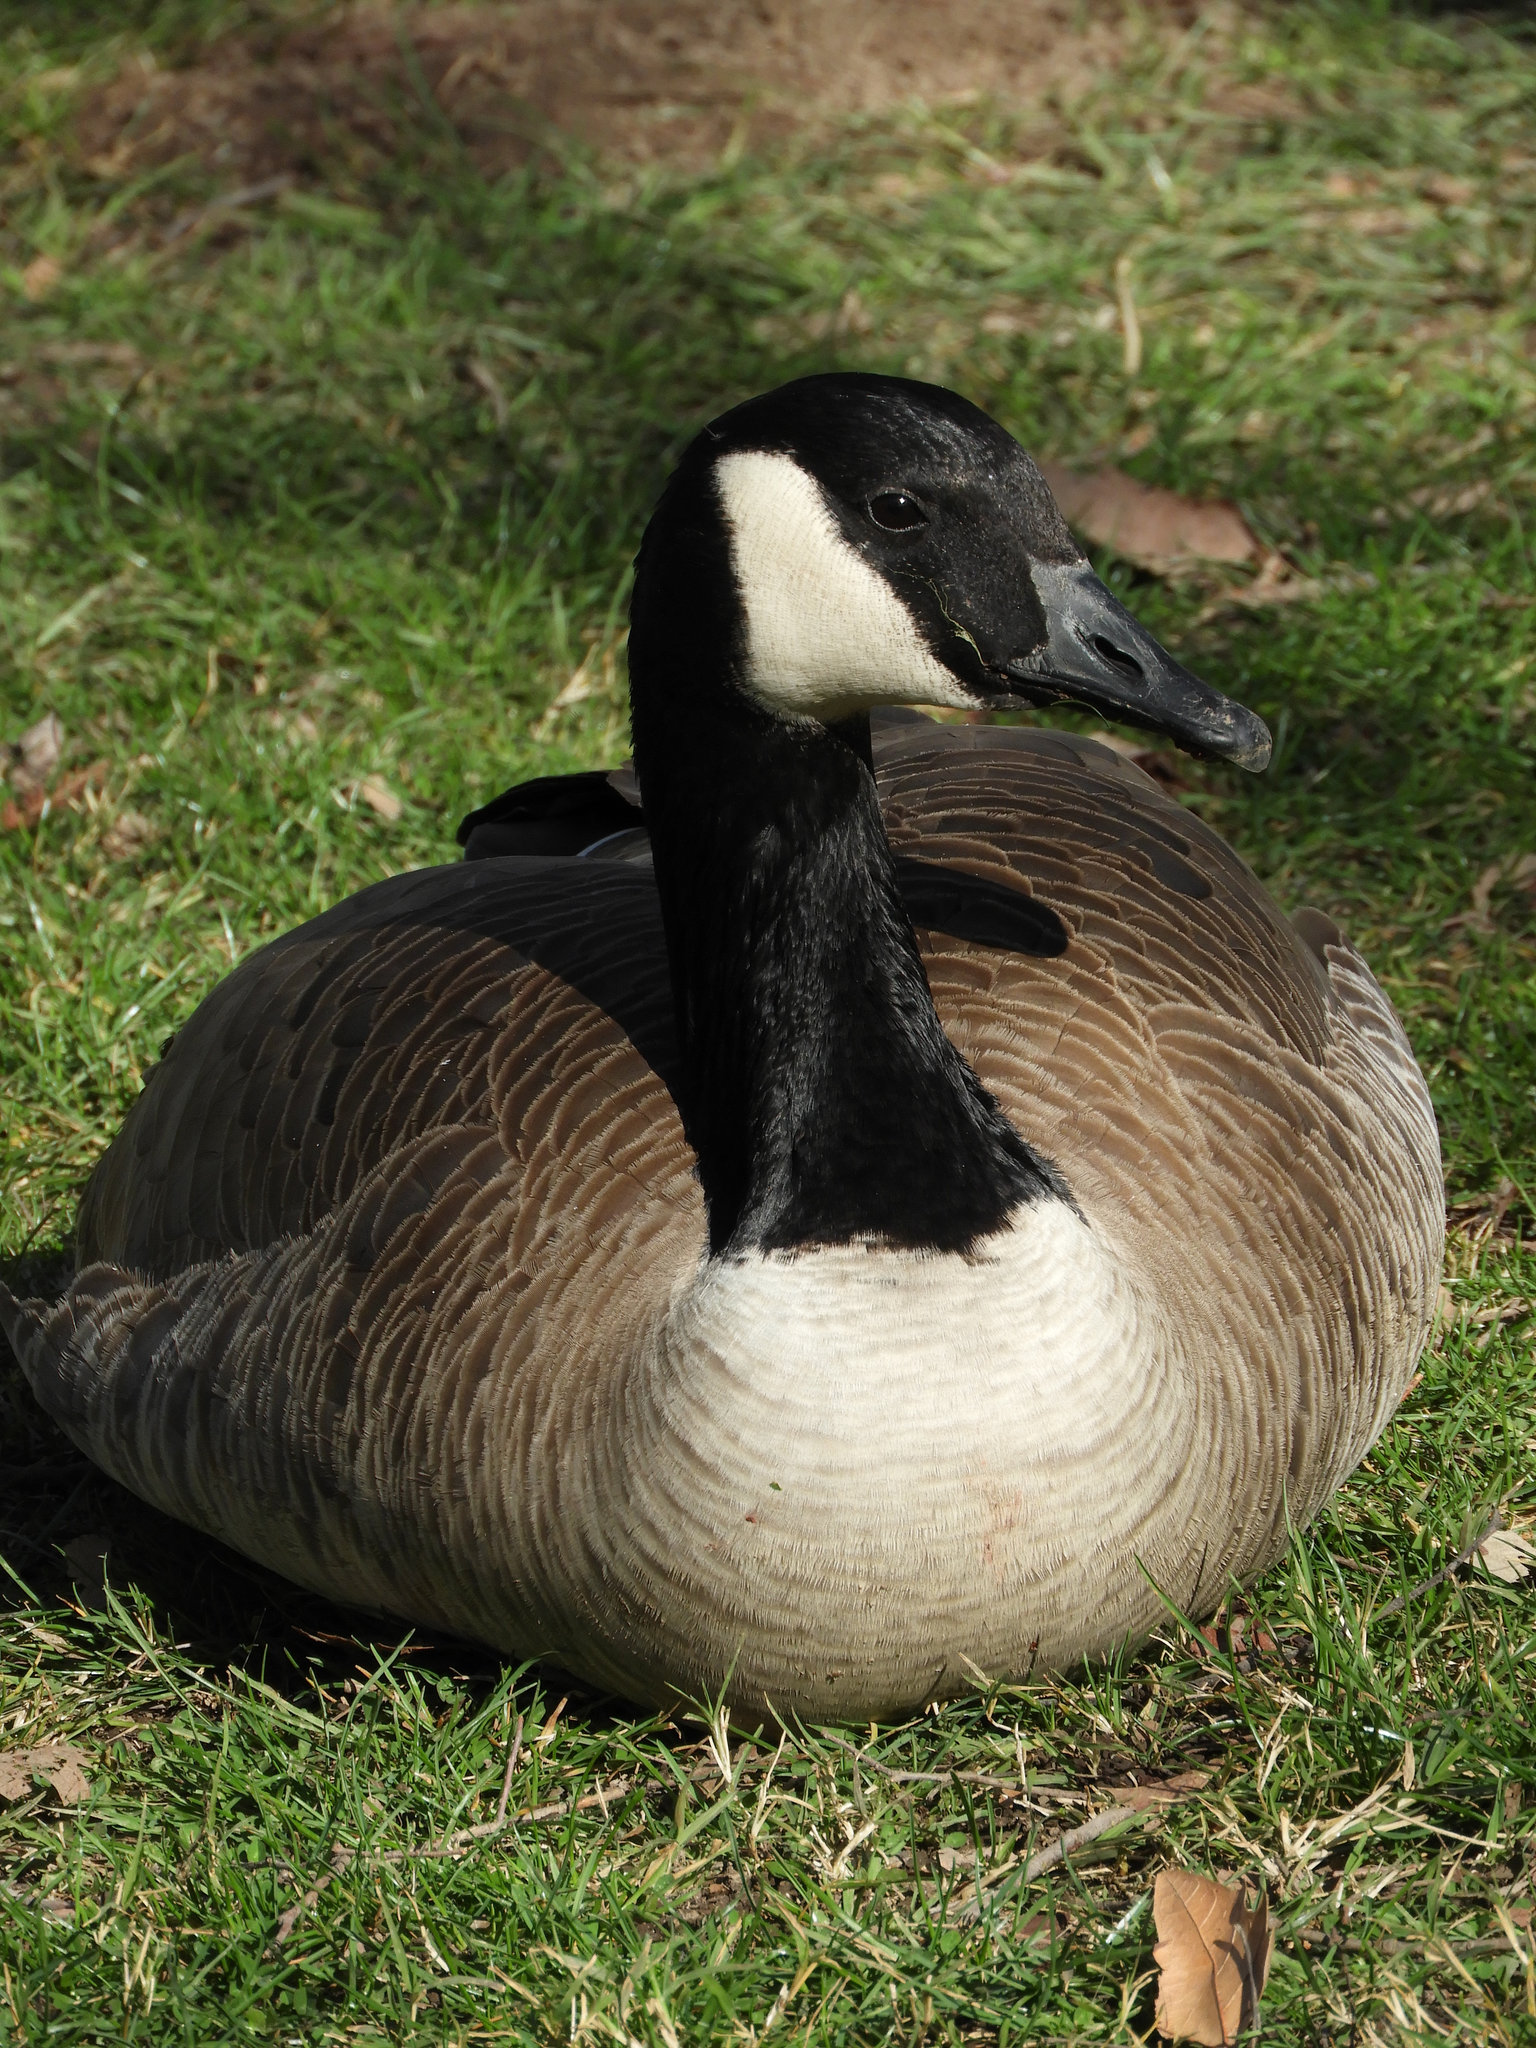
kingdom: Animalia
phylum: Chordata
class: Aves
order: Anseriformes
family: Anatidae
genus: Branta
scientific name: Branta canadensis
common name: Canada goose
